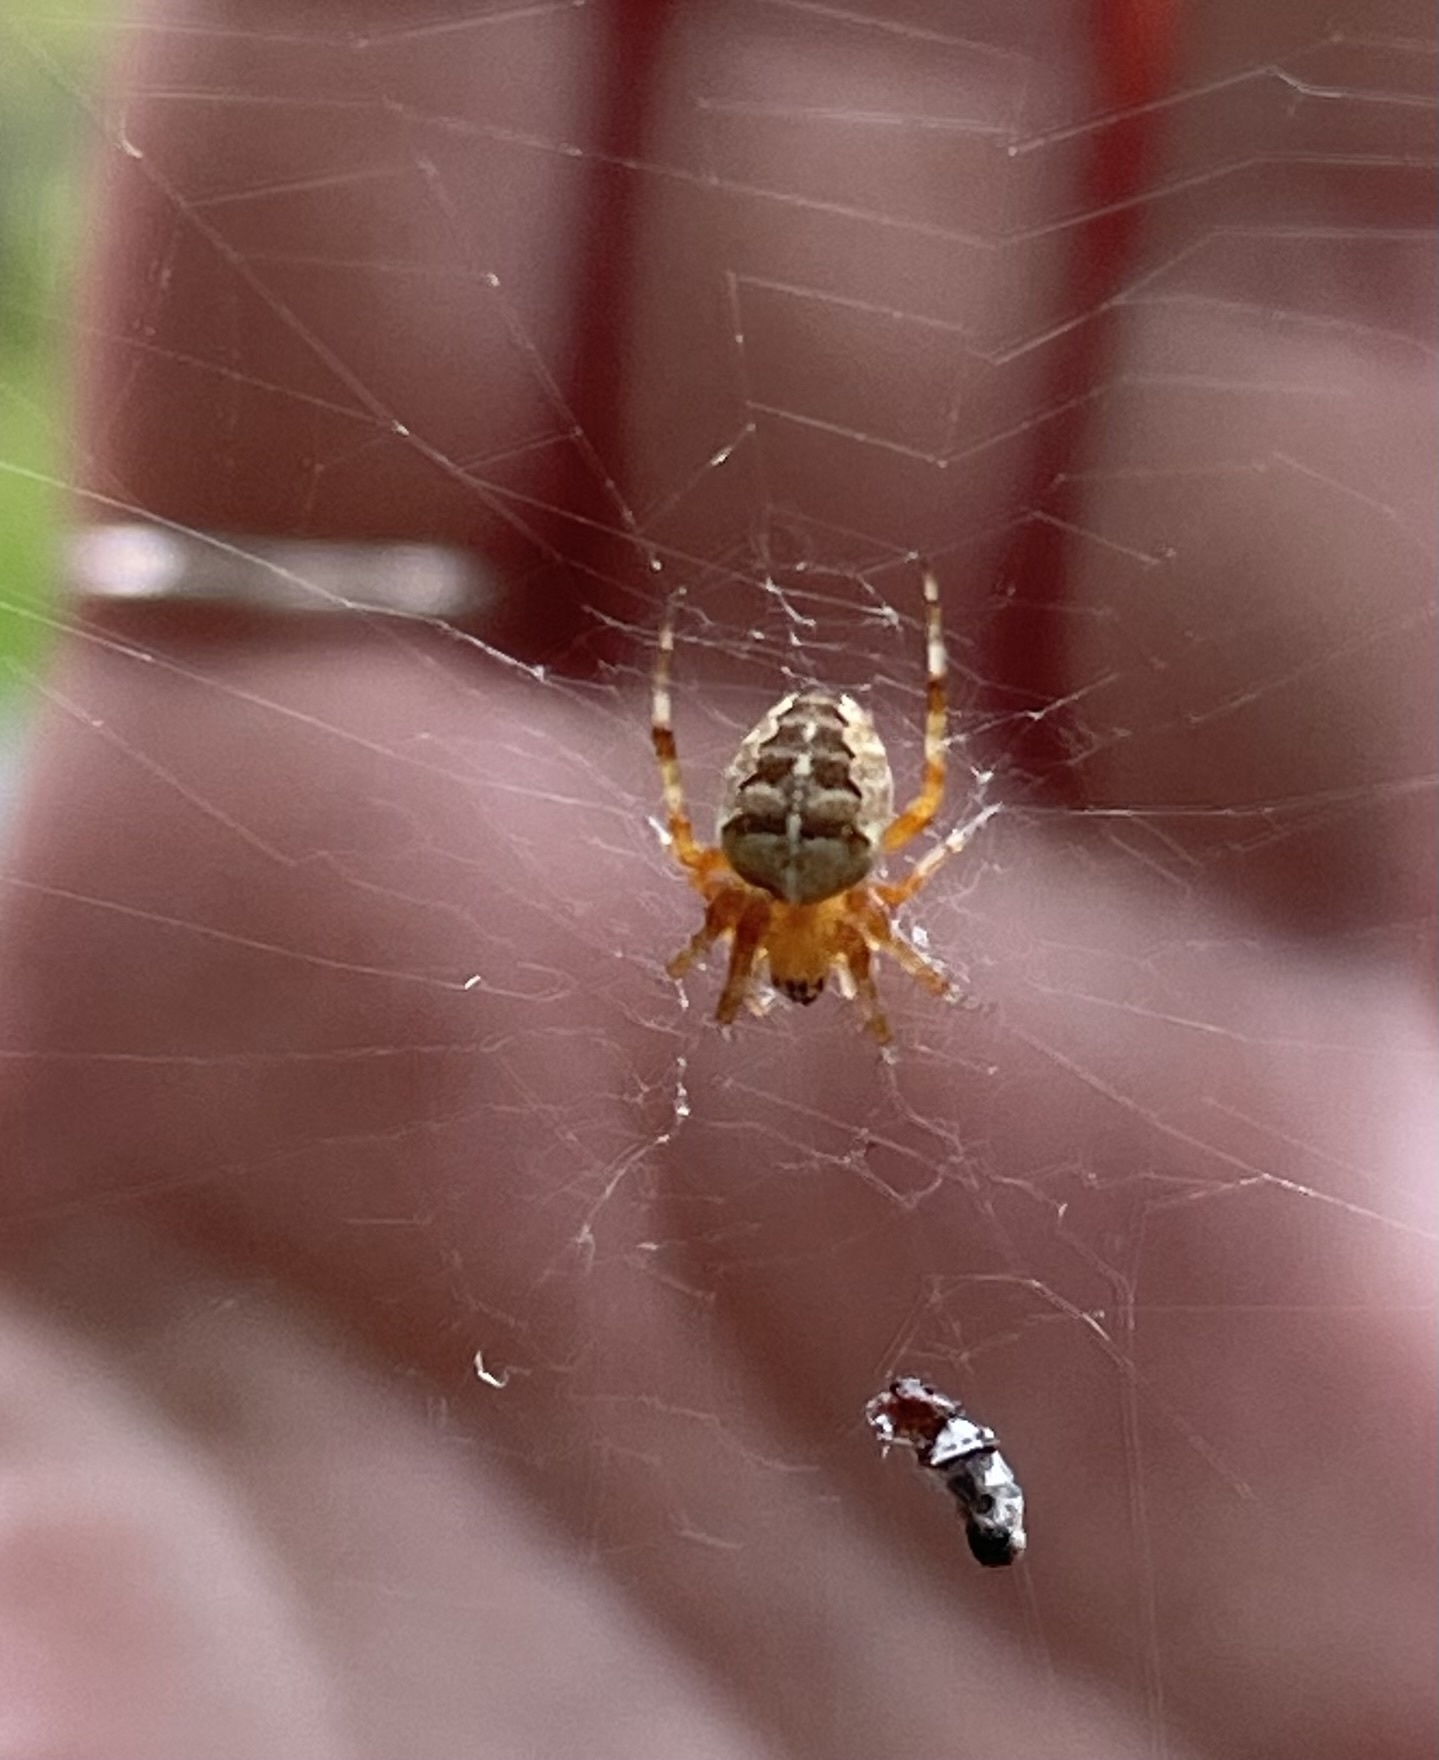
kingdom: Animalia
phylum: Arthropoda
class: Arachnida
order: Araneae
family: Araneidae
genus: Araneus
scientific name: Araneus diadematus
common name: Cross orbweaver
